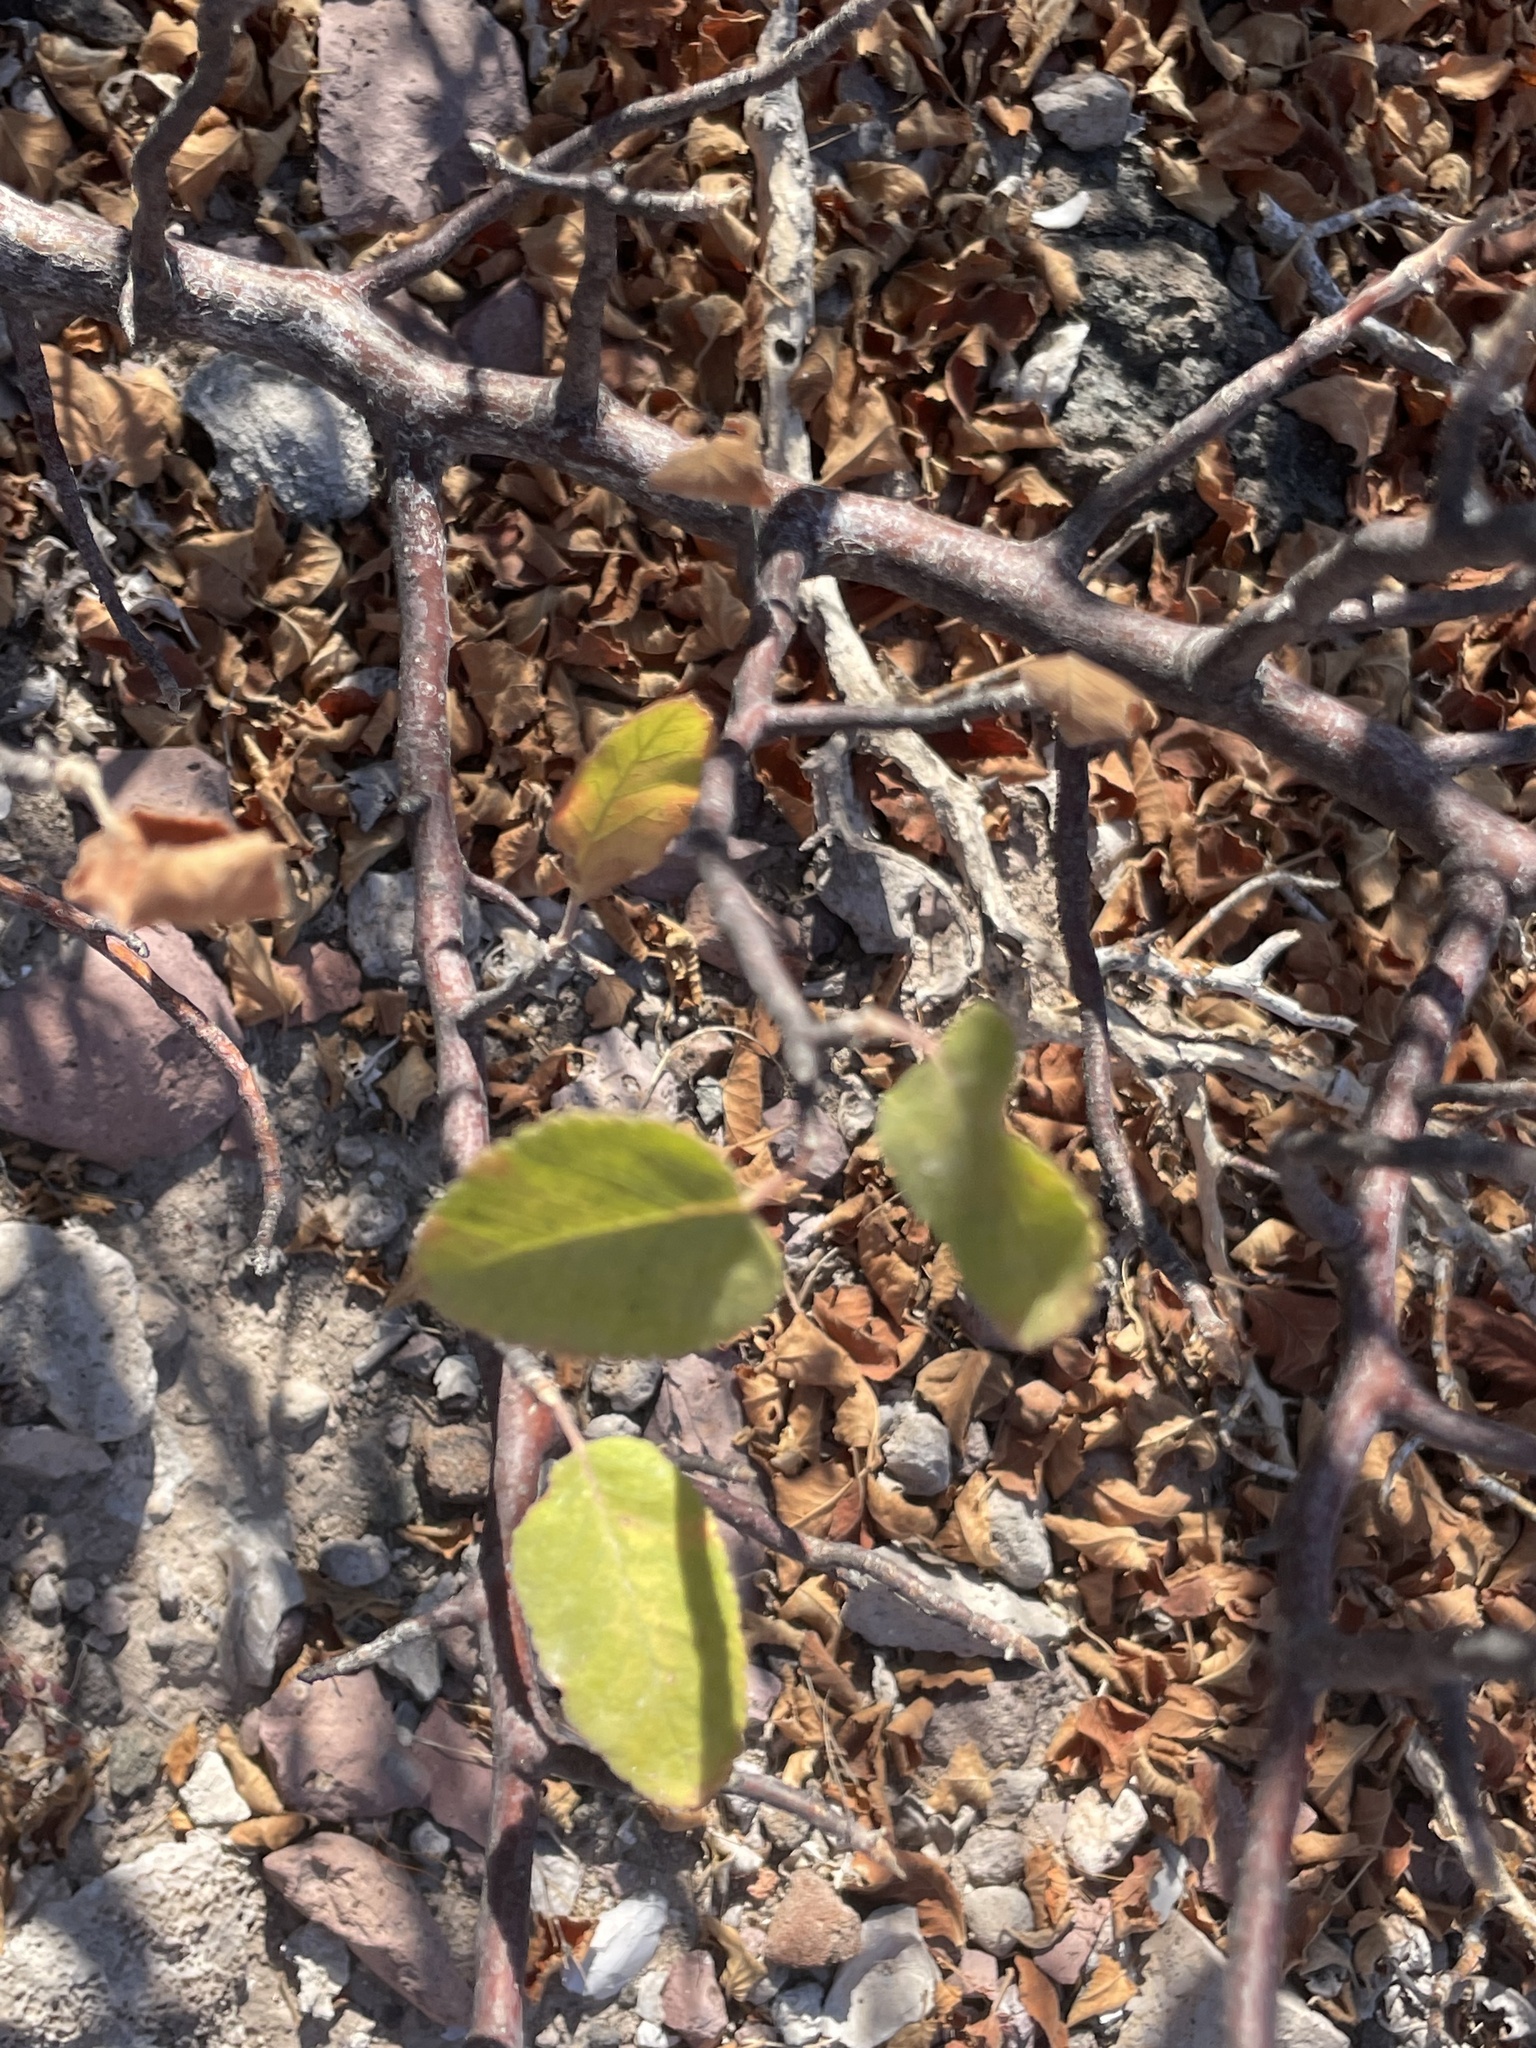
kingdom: Plantae
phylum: Tracheophyta
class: Magnoliopsida
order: Sapindales
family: Burseraceae
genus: Bursera
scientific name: Bursera hindsiana
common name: Red elephant tree
